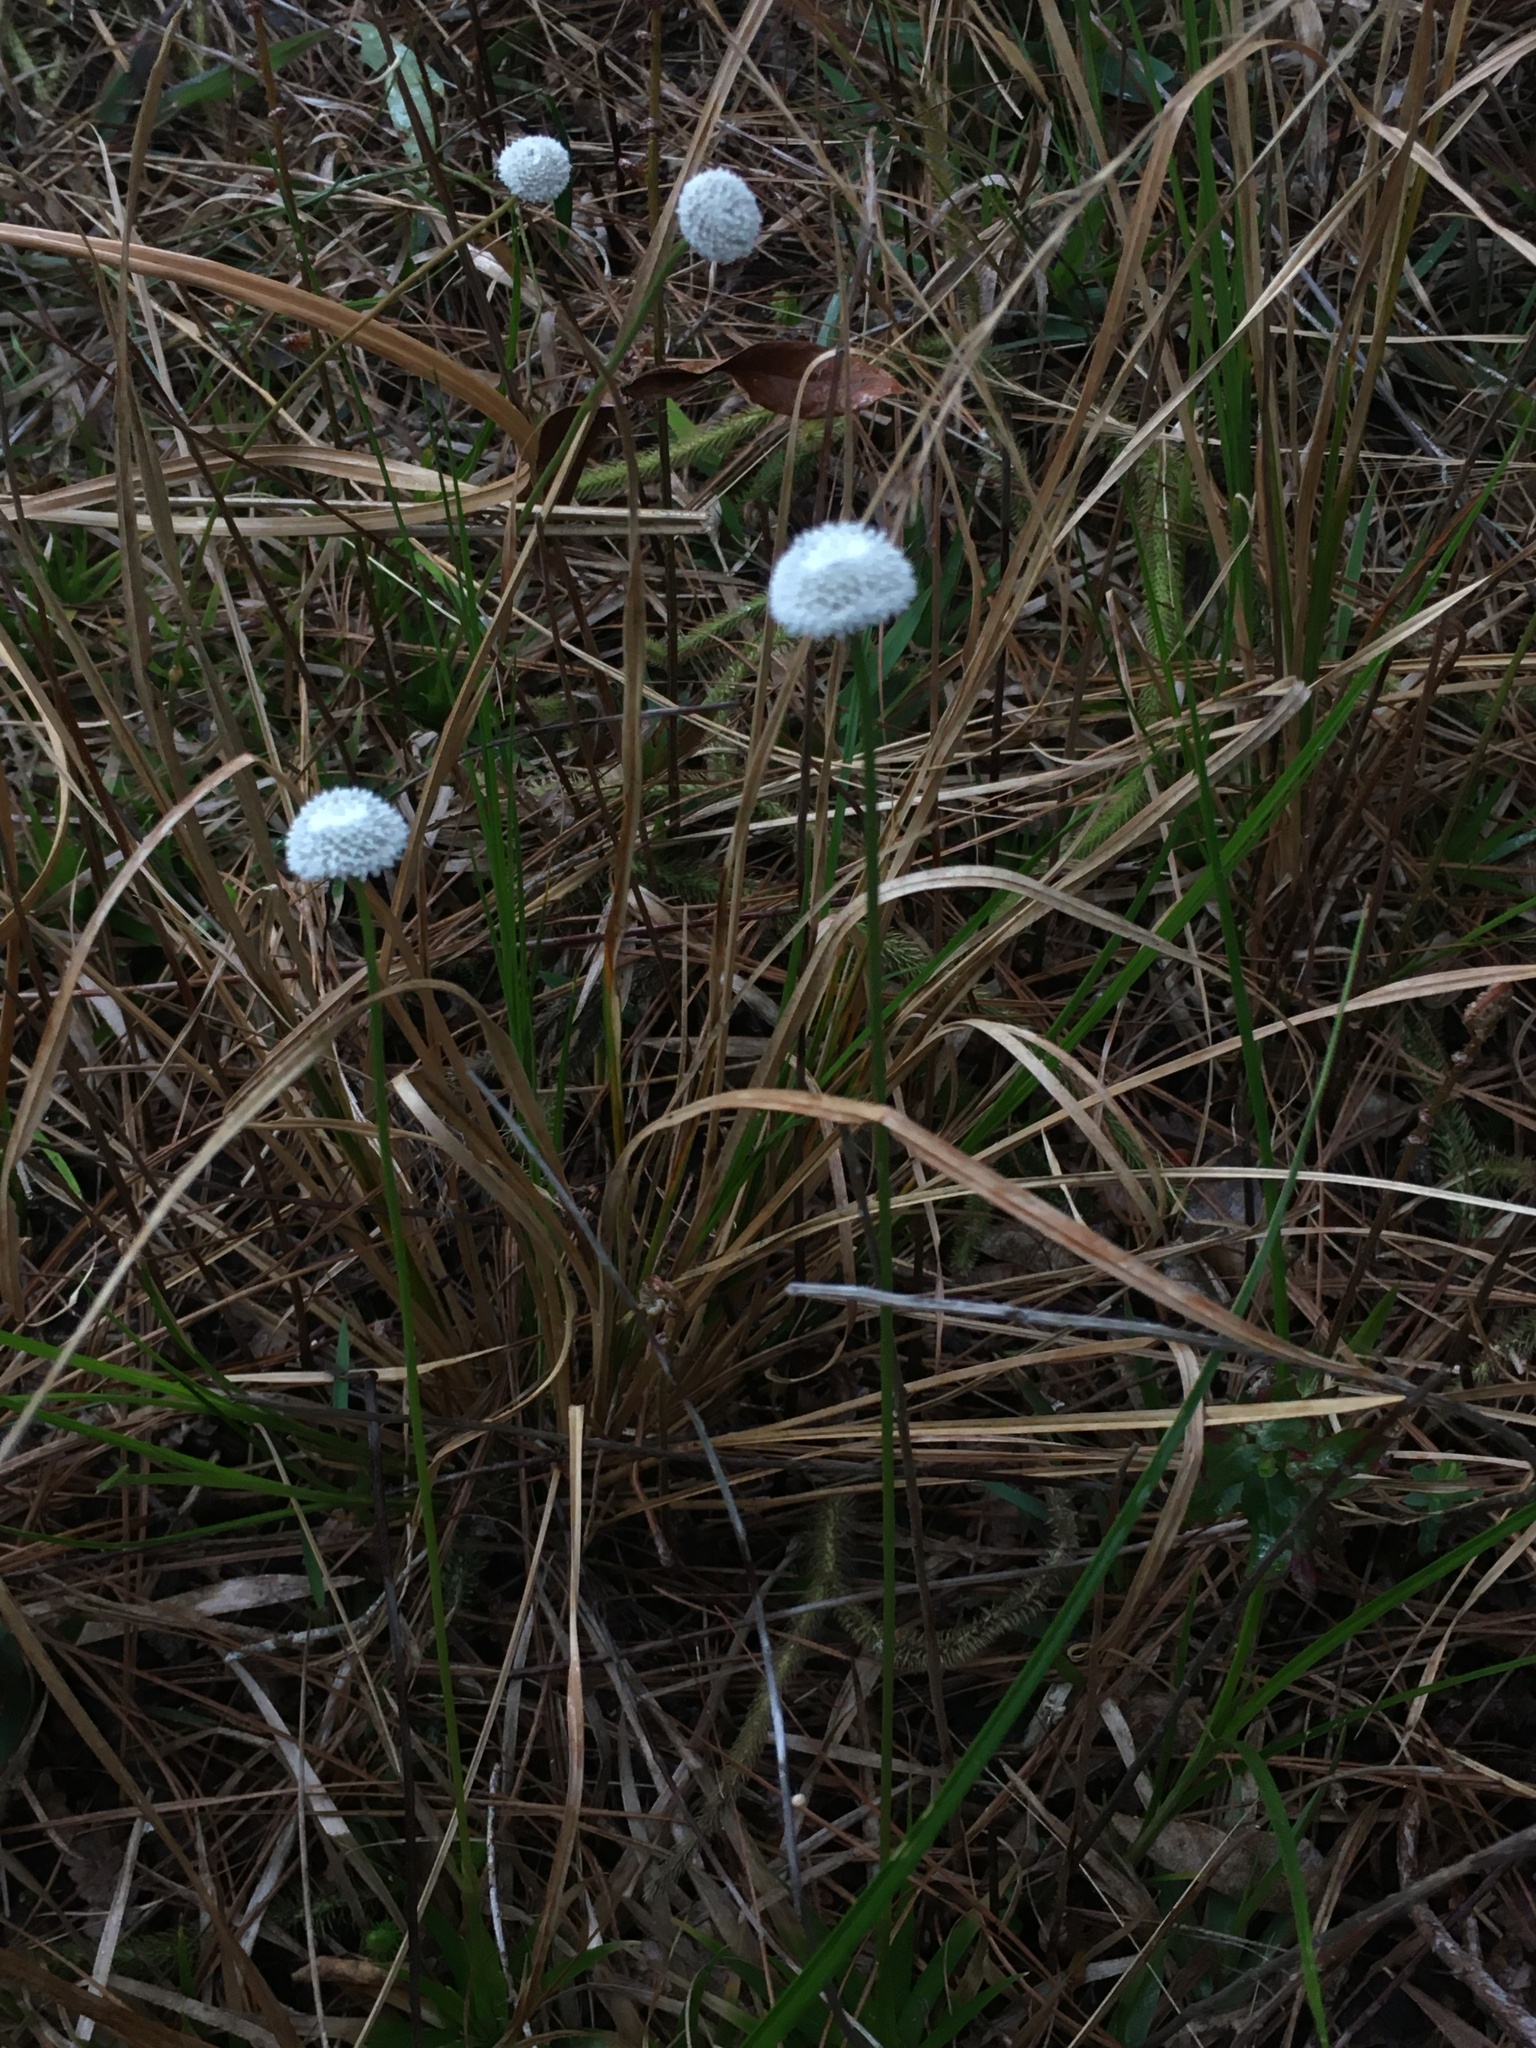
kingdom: Plantae
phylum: Tracheophyta
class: Liliopsida
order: Poales
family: Eriocaulaceae
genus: Eriocaulon
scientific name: Eriocaulon compressum
